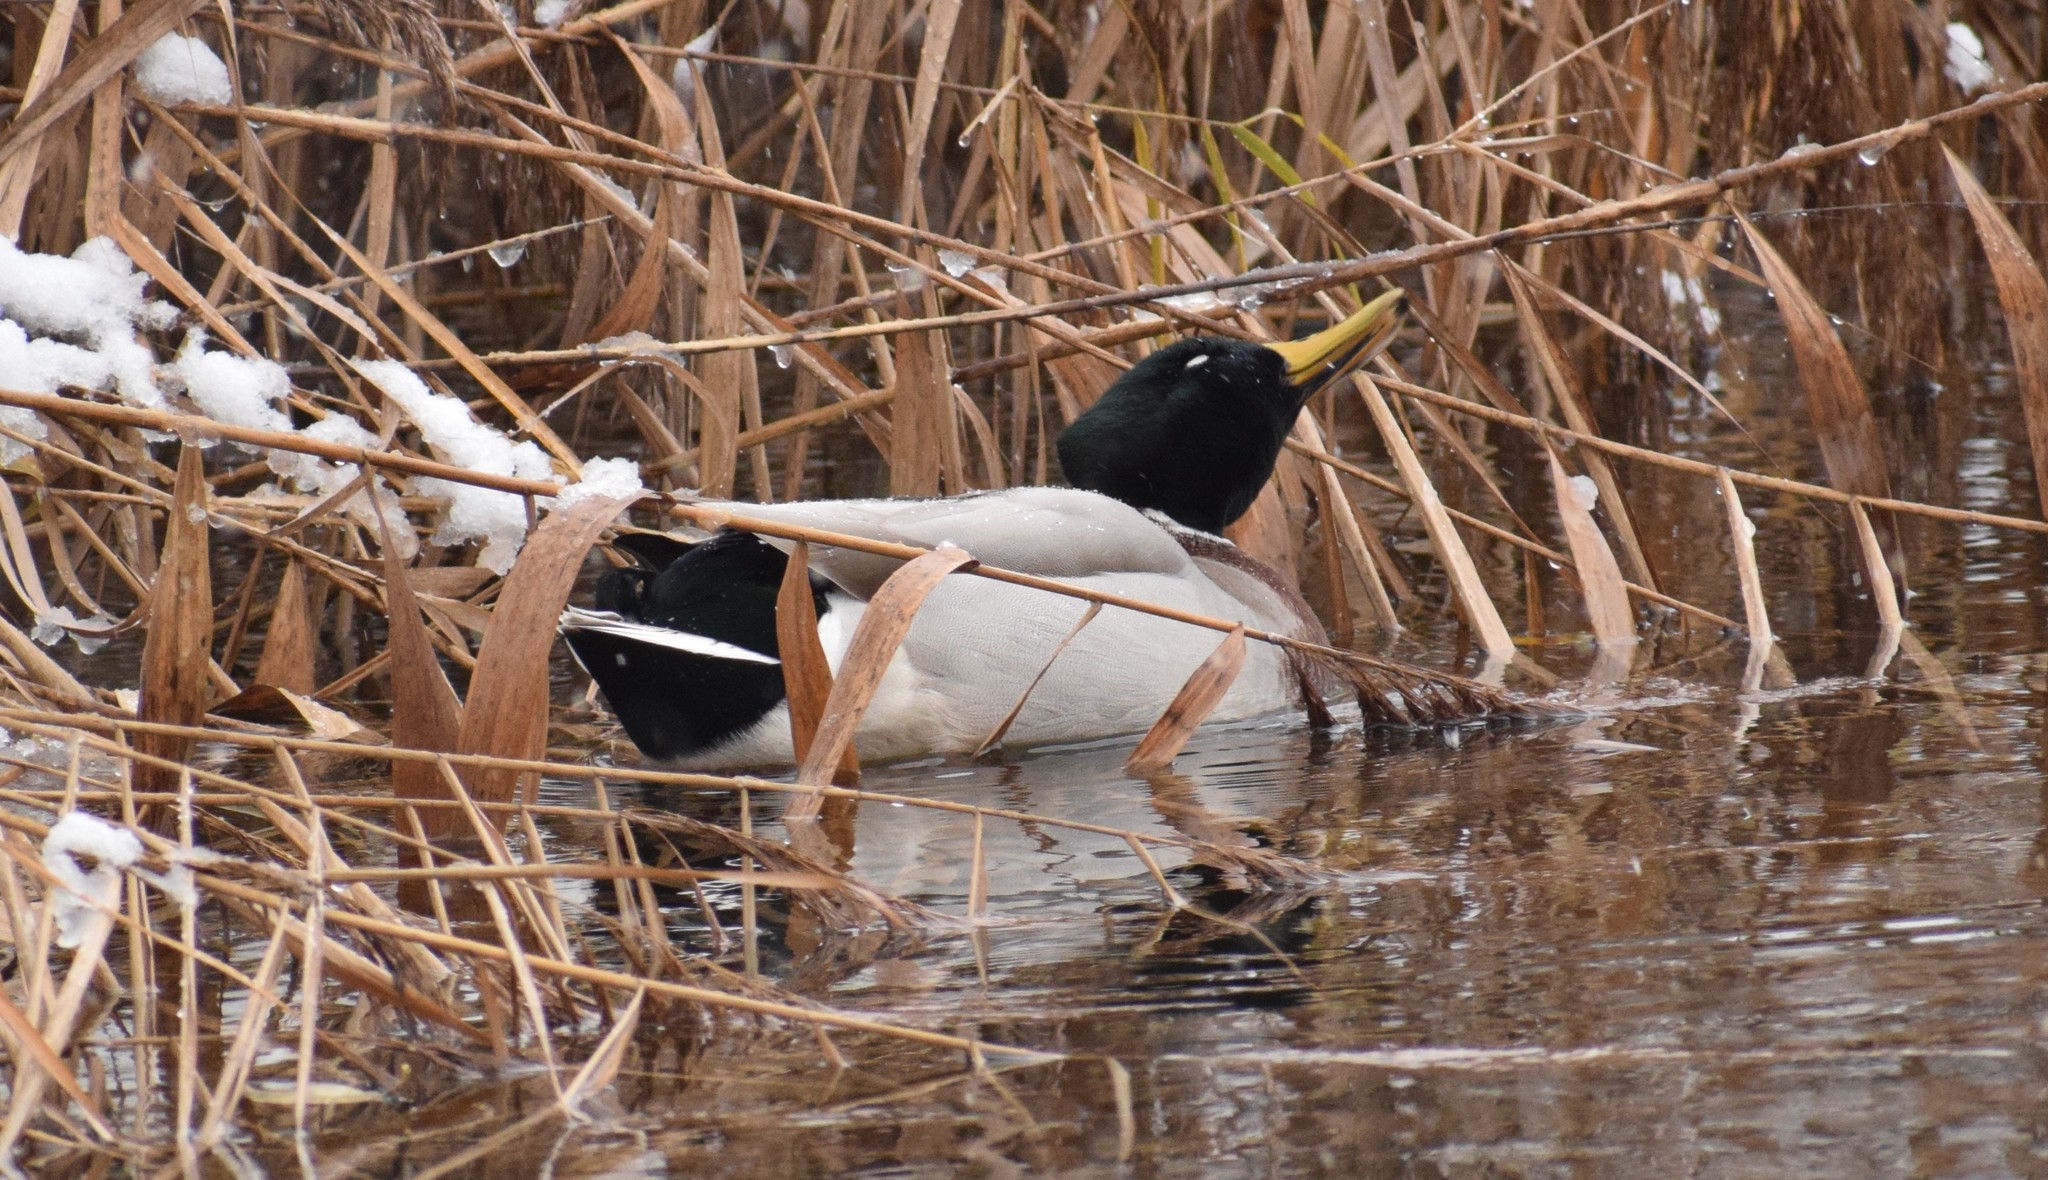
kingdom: Animalia
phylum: Chordata
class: Aves
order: Anseriformes
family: Anatidae
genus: Anas
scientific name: Anas platyrhynchos
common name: Mallard
